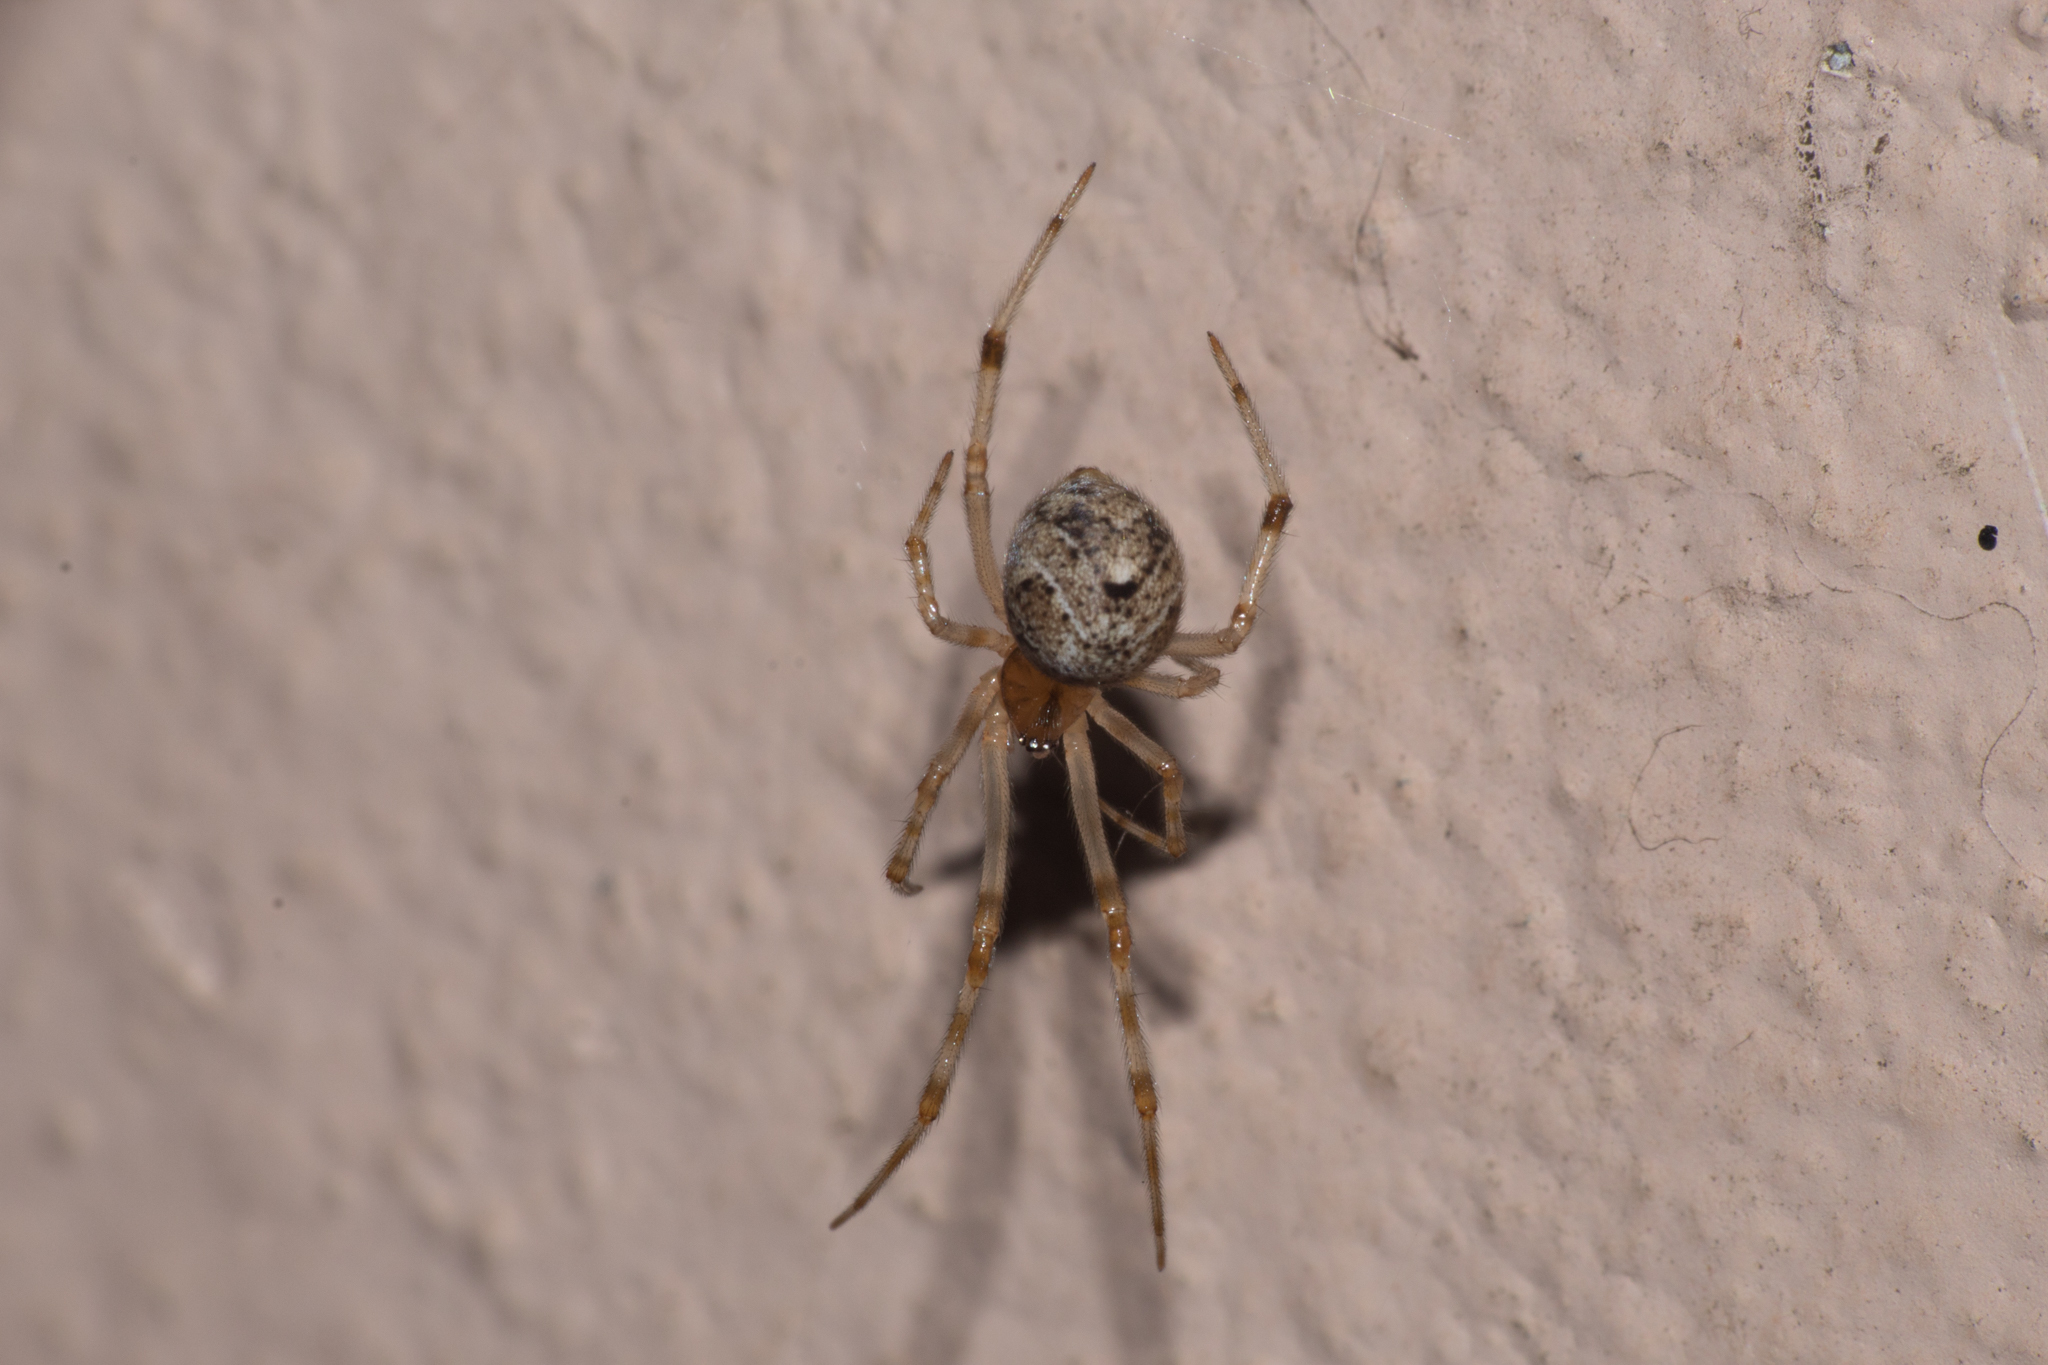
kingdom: Animalia
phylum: Arthropoda
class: Arachnida
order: Araneae
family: Theridiidae
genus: Parasteatoda
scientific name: Parasteatoda tepidariorum
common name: Common house spider
